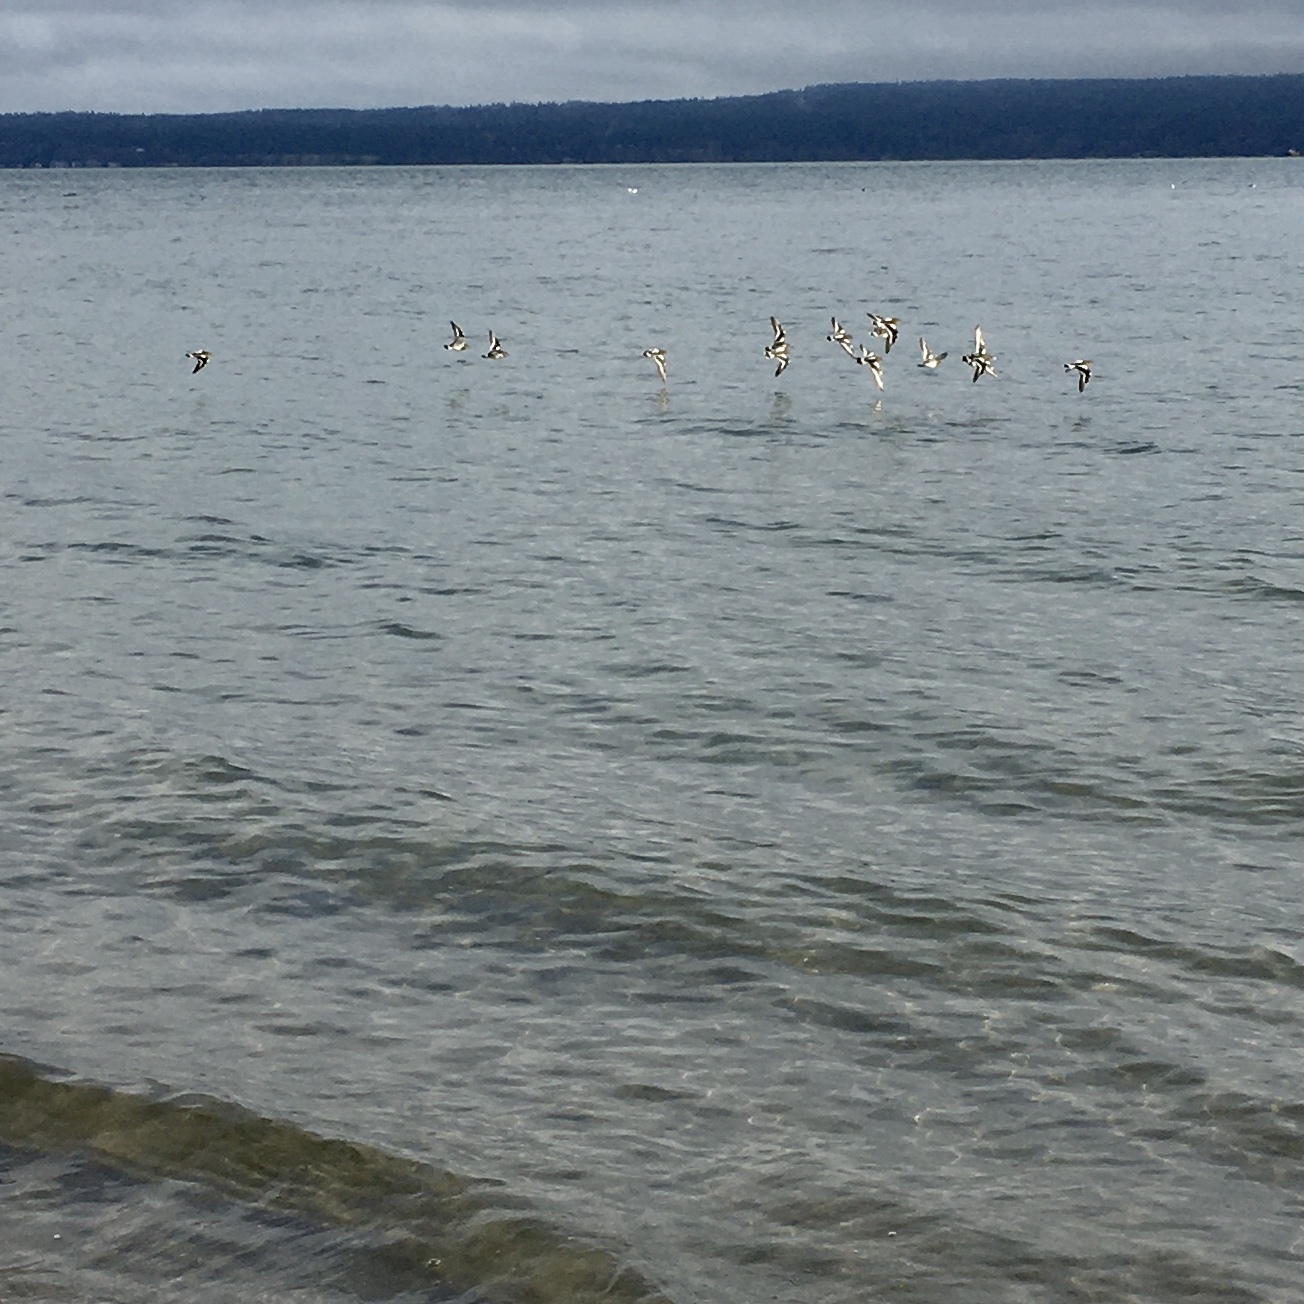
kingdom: Animalia
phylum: Chordata
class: Aves
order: Charadriiformes
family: Scolopacidae
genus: Arenaria
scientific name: Arenaria melanocephala
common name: Black turnstone
